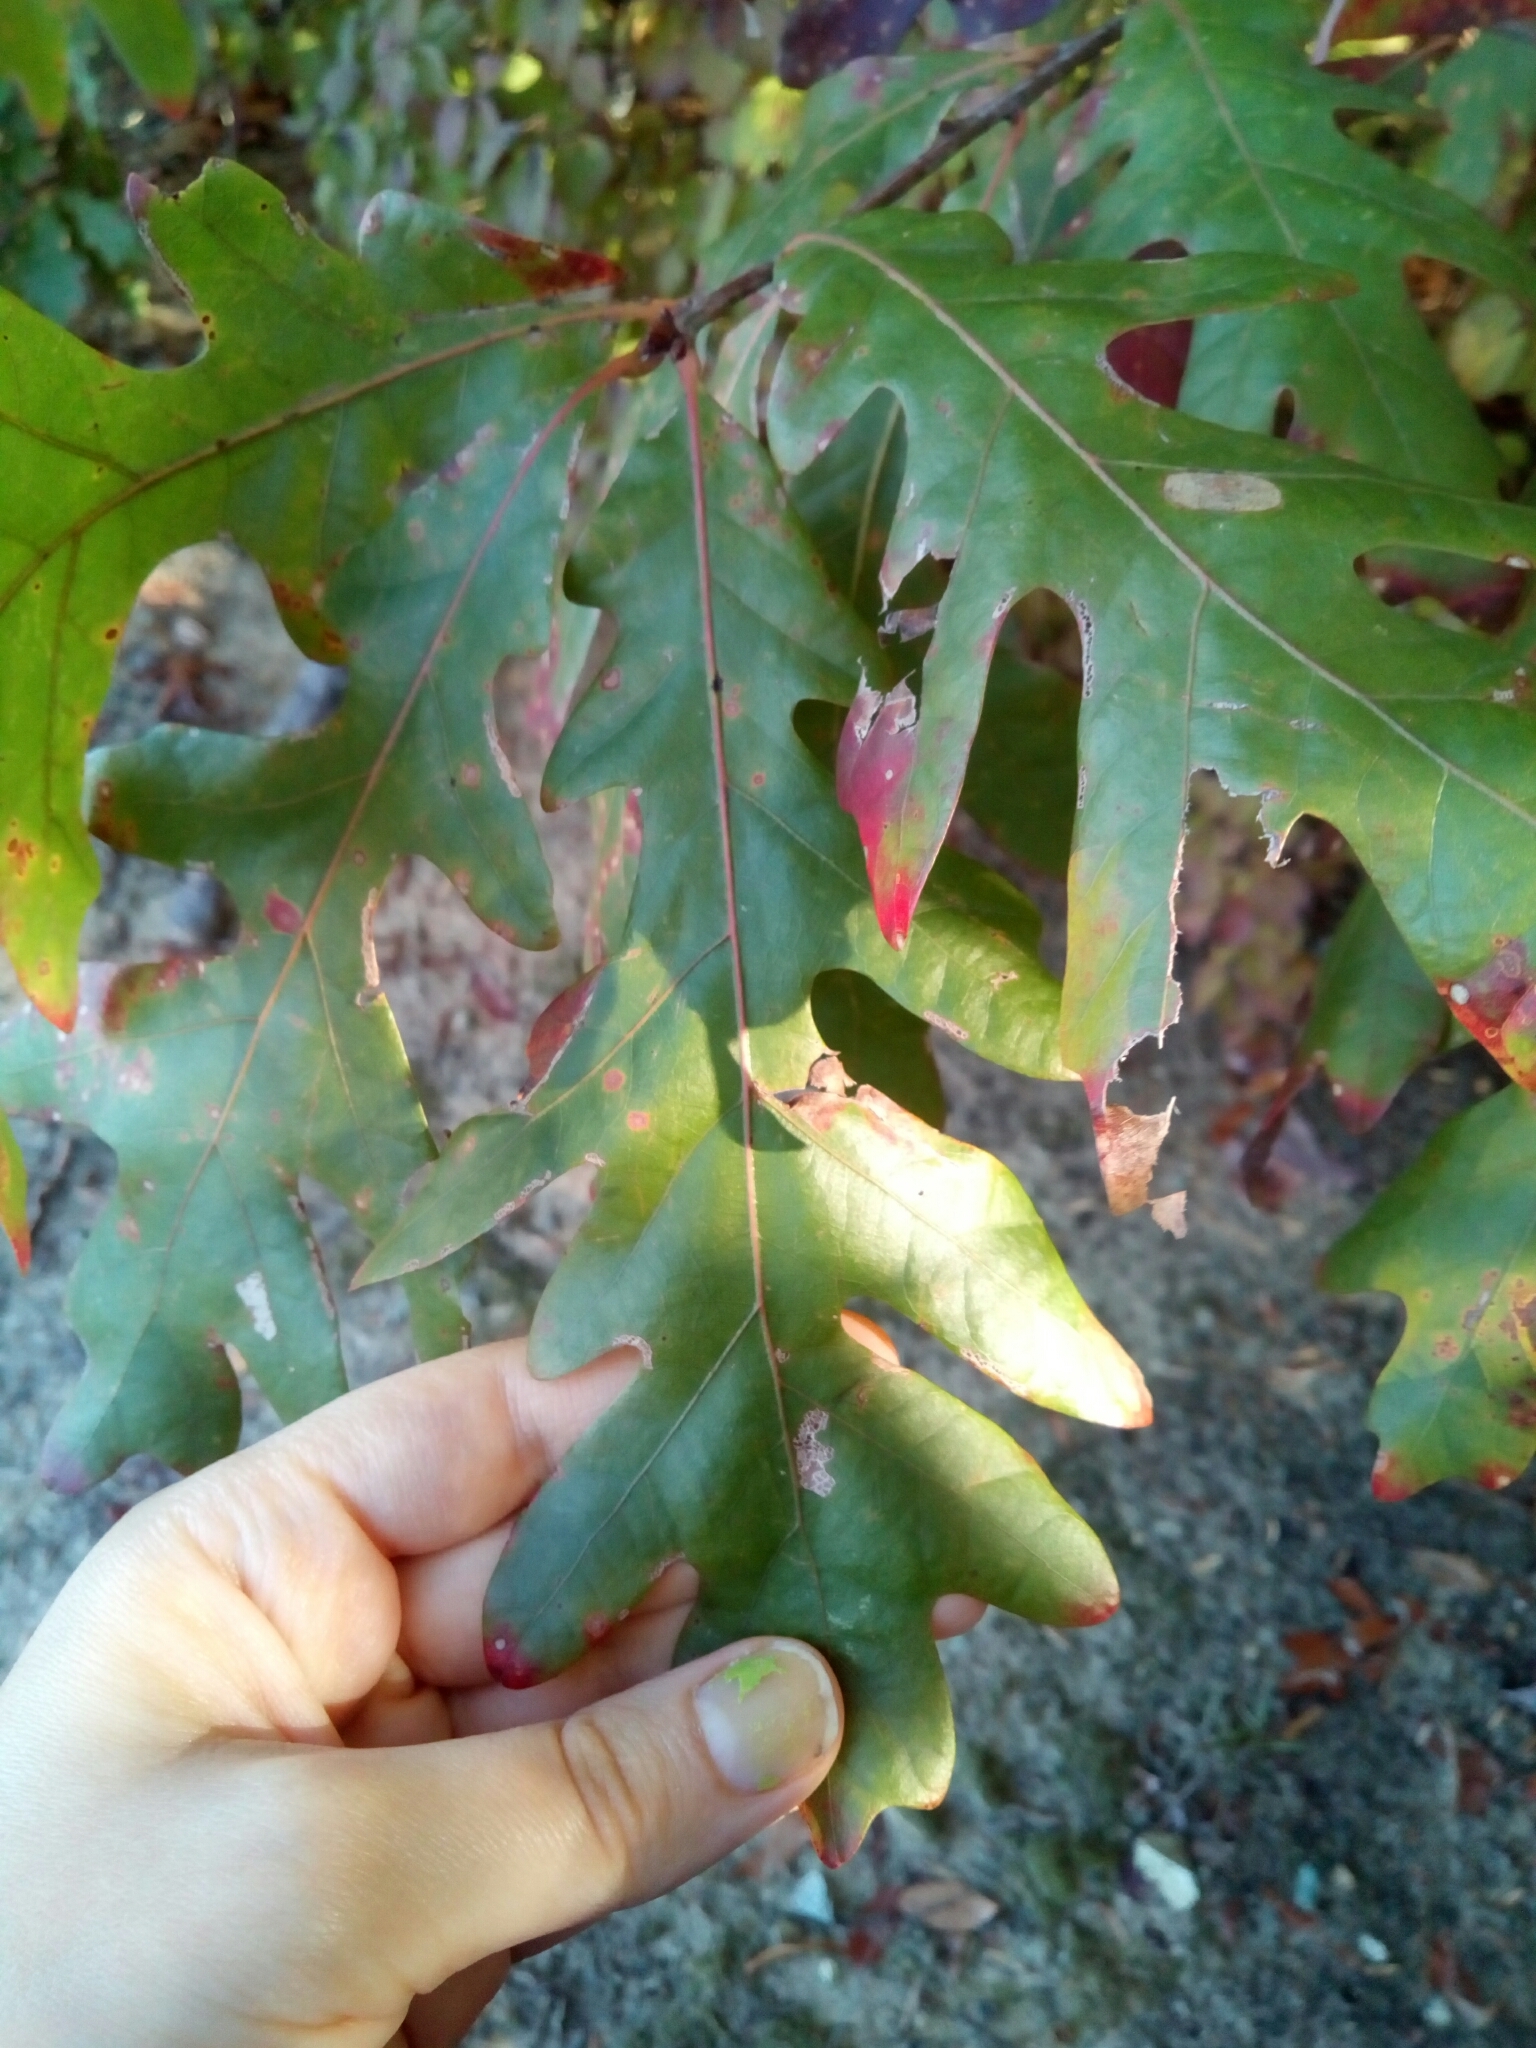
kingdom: Plantae
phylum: Tracheophyta
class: Magnoliopsida
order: Fagales
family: Fagaceae
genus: Quercus
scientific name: Quercus alba
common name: White oak
